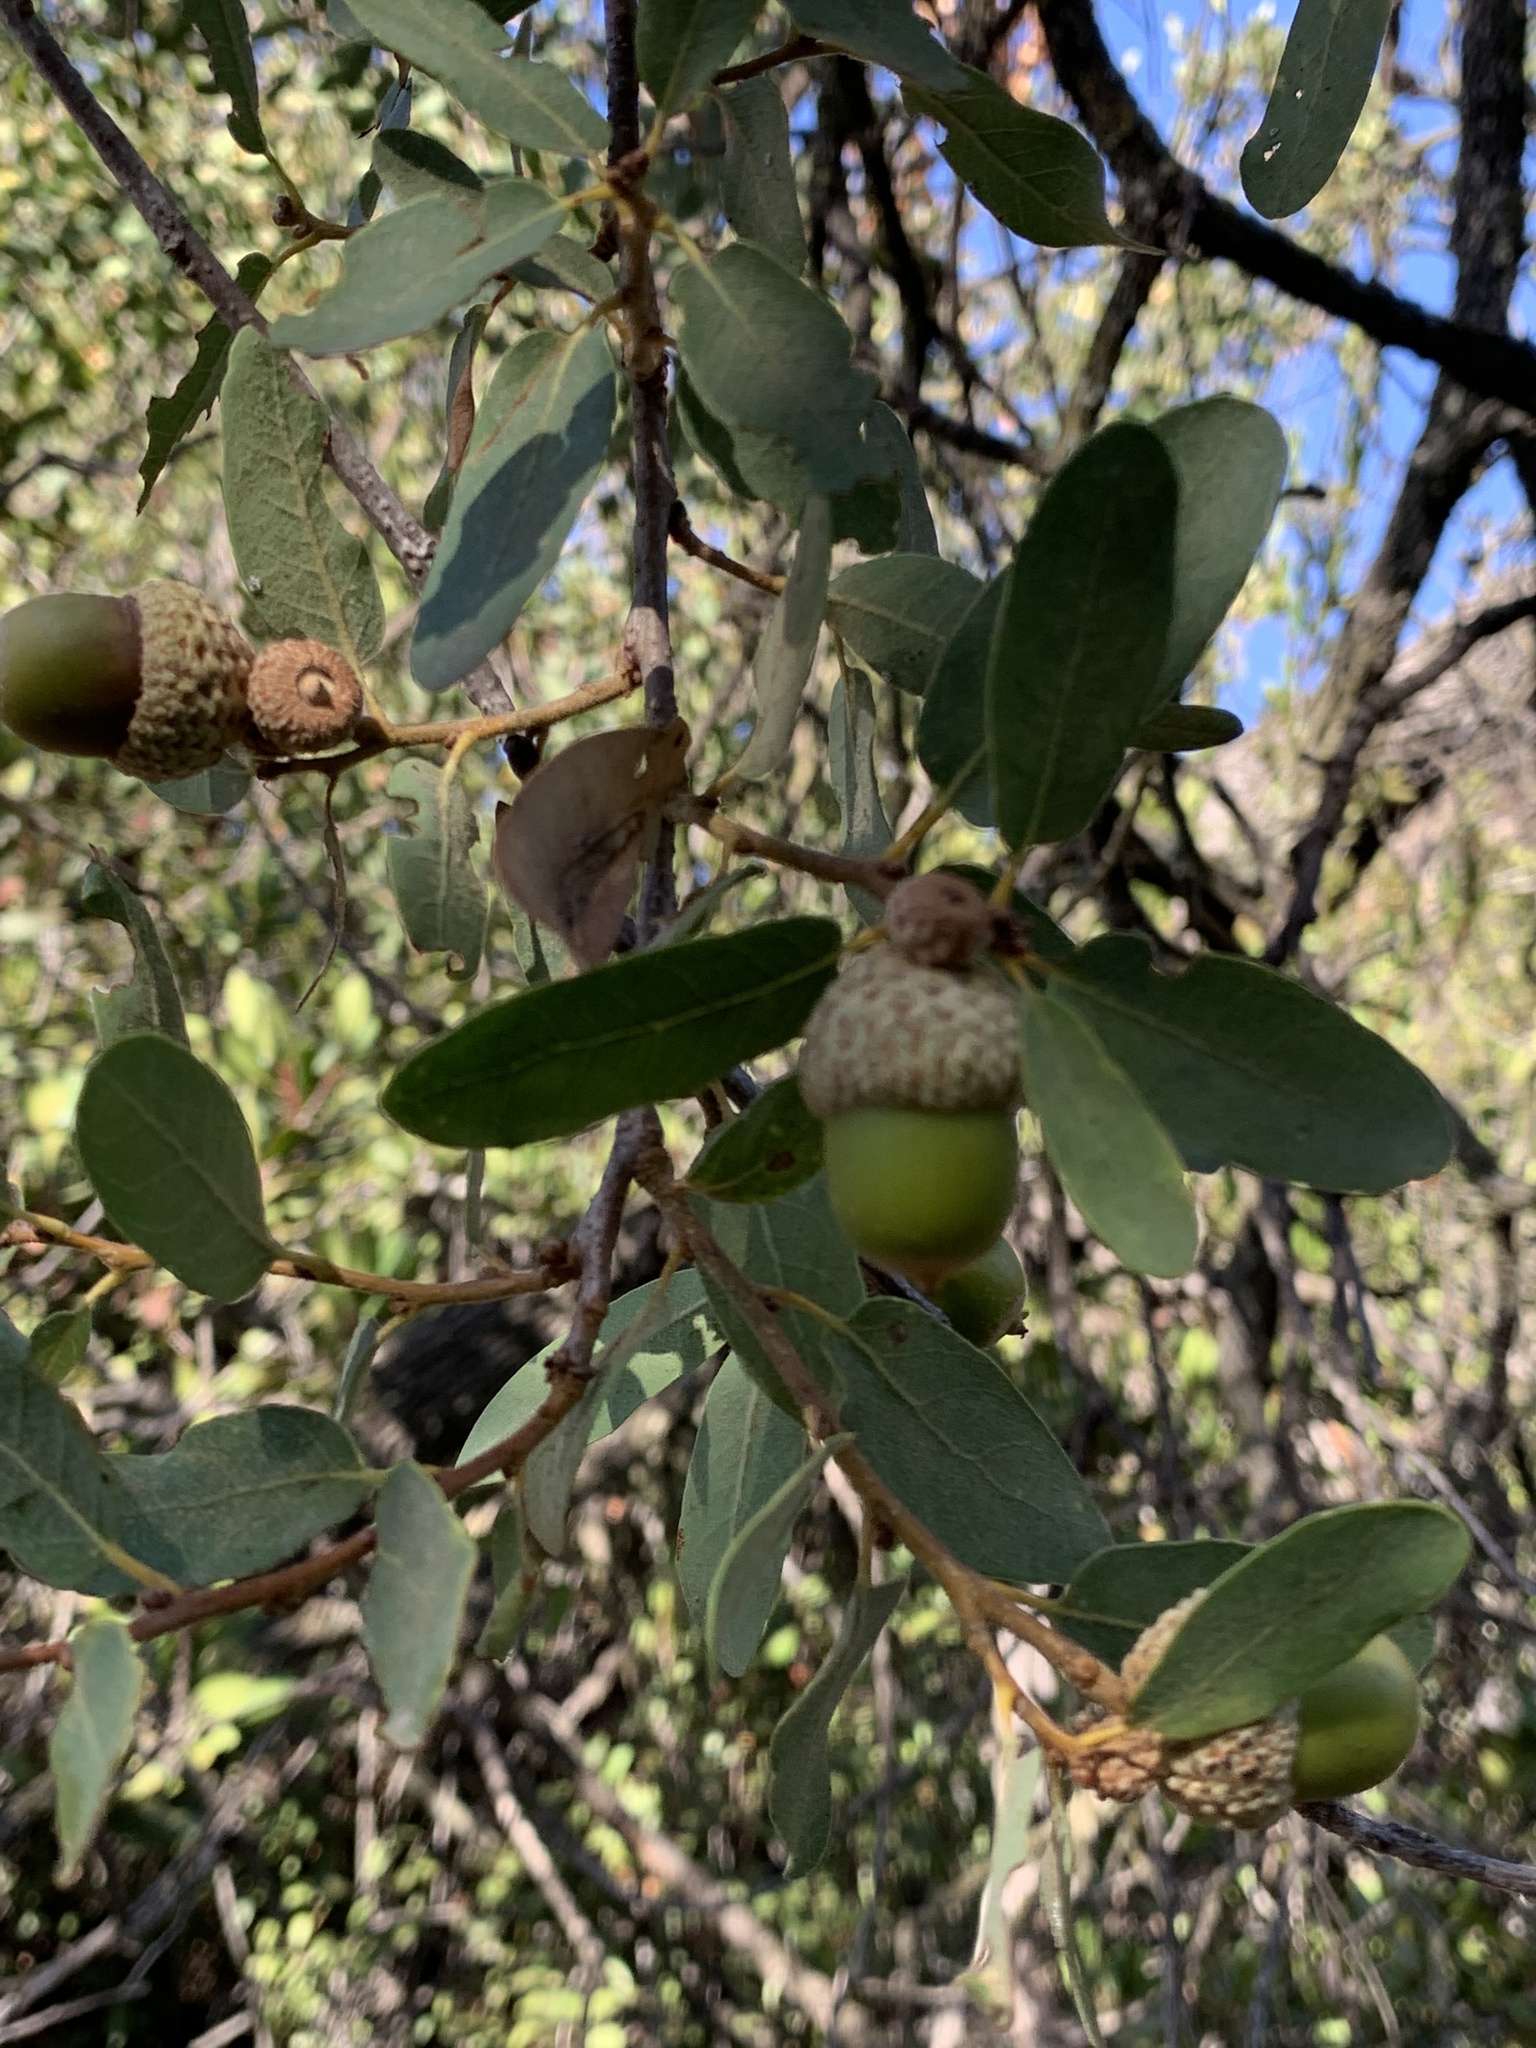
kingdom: Plantae
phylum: Tracheophyta
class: Magnoliopsida
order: Fagales
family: Fagaceae
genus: Quercus
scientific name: Quercus engelmannii
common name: Engelmann oak
